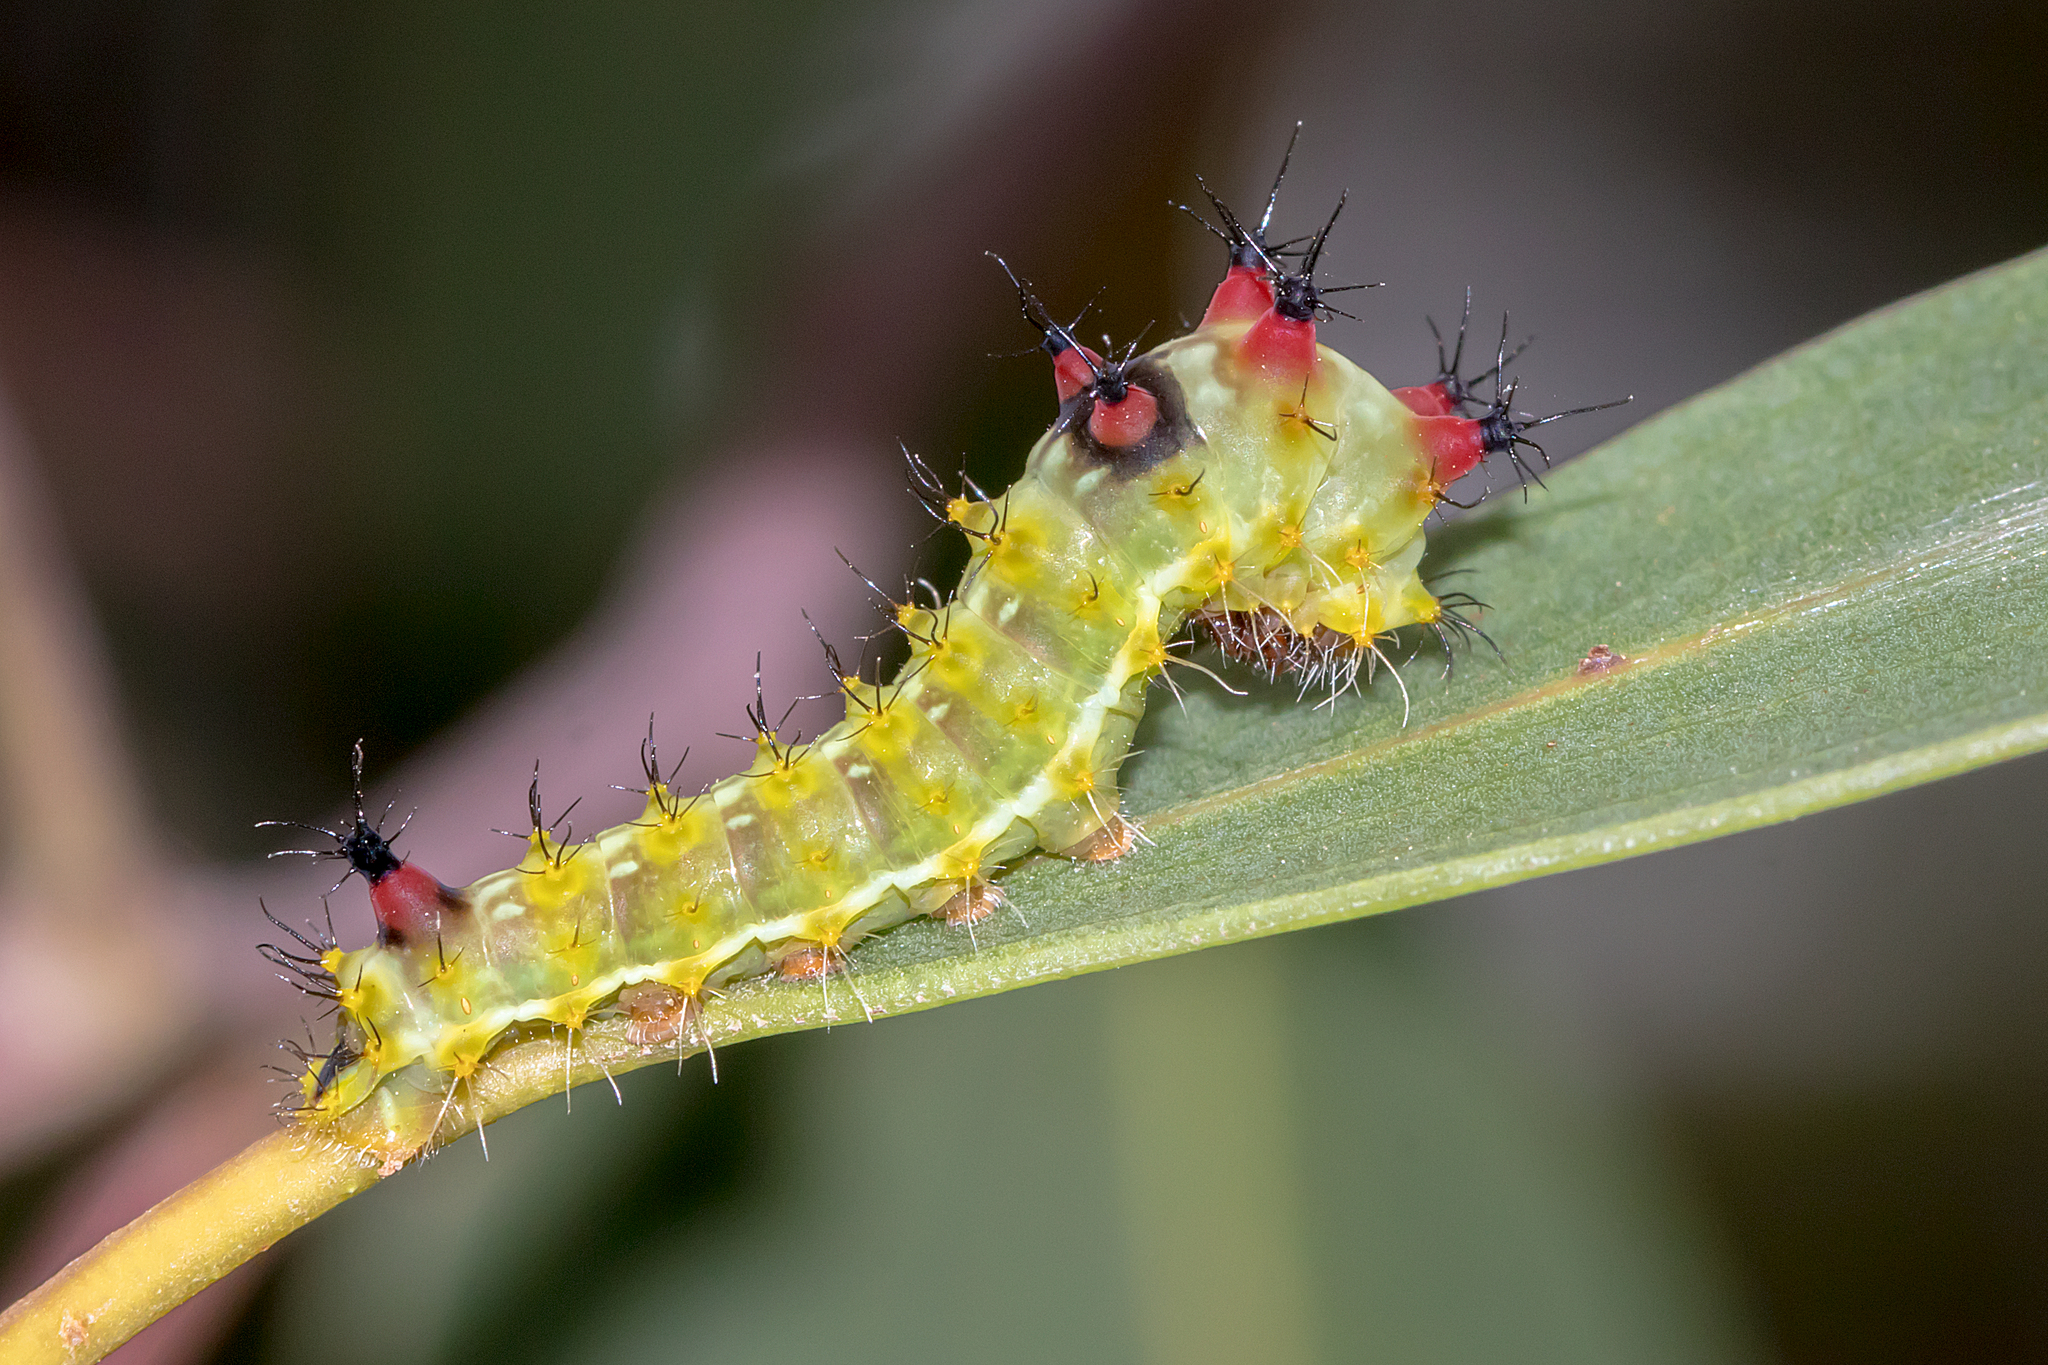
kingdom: Animalia
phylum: Arthropoda
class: Insecta
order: Lepidoptera
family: Saturniidae
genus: Opodiphthera
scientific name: Opodiphthera
